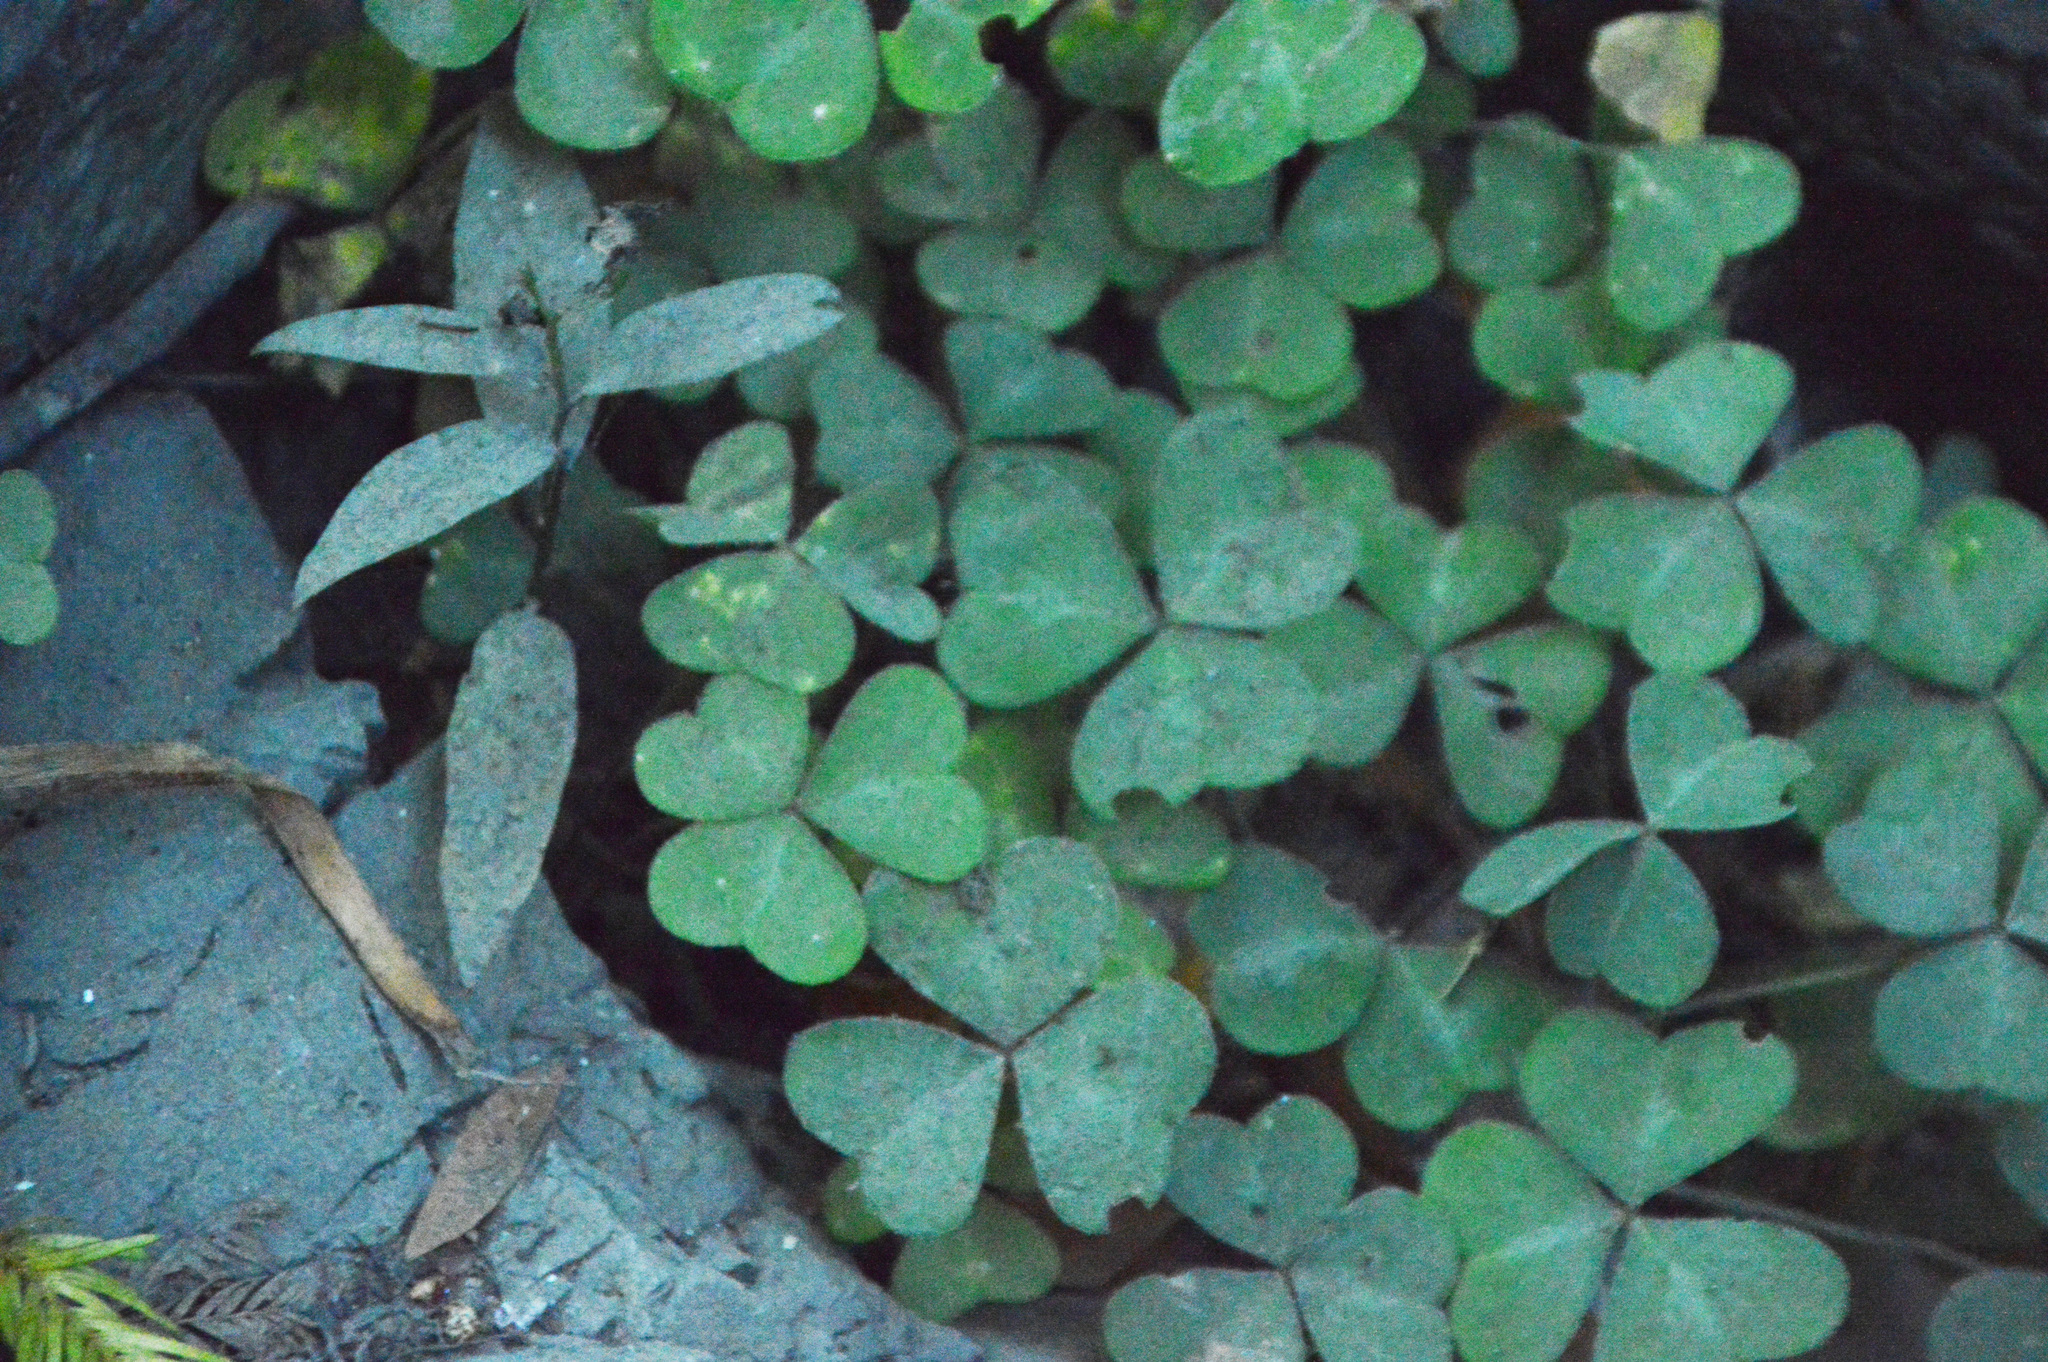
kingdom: Plantae
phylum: Tracheophyta
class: Magnoliopsida
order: Oxalidales
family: Oxalidaceae
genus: Oxalis
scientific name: Oxalis oregana
